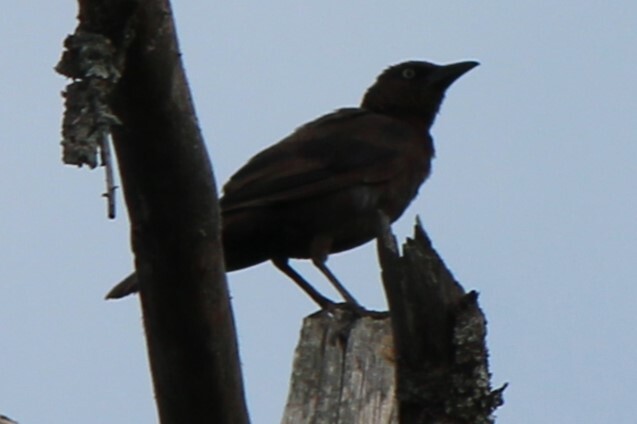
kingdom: Animalia
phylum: Chordata
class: Aves
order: Passeriformes
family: Icteridae
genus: Quiscalus
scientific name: Quiscalus quiscula
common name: Common grackle
